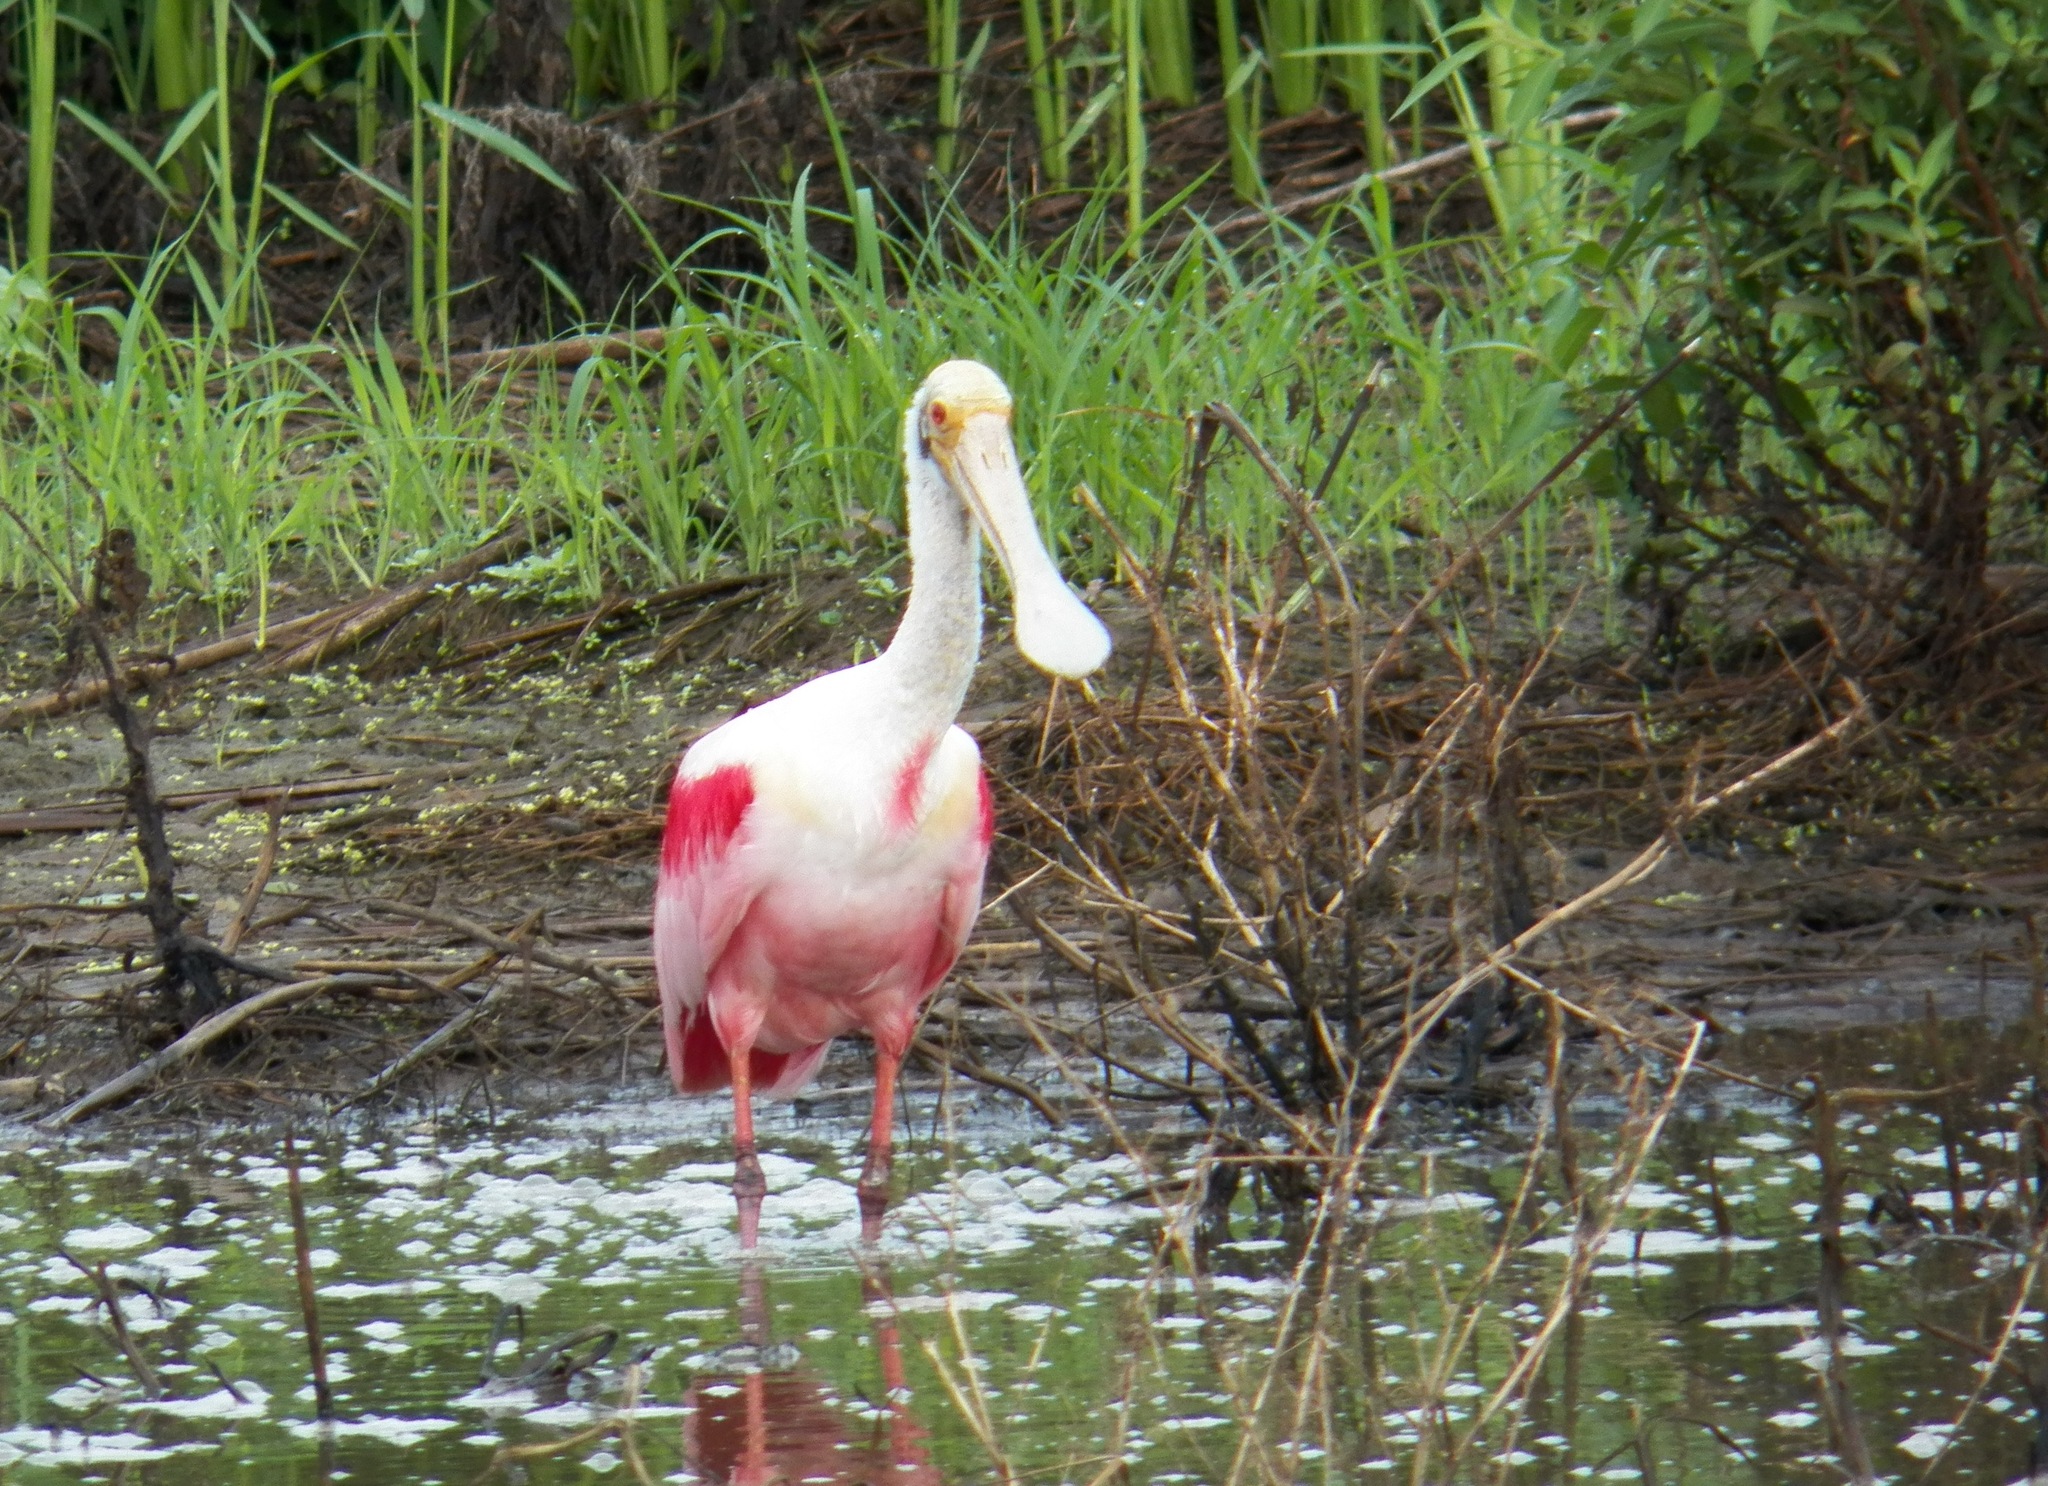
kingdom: Animalia
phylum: Chordata
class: Aves
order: Pelecaniformes
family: Threskiornithidae
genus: Platalea
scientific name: Platalea ajaja
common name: Roseate spoonbill
